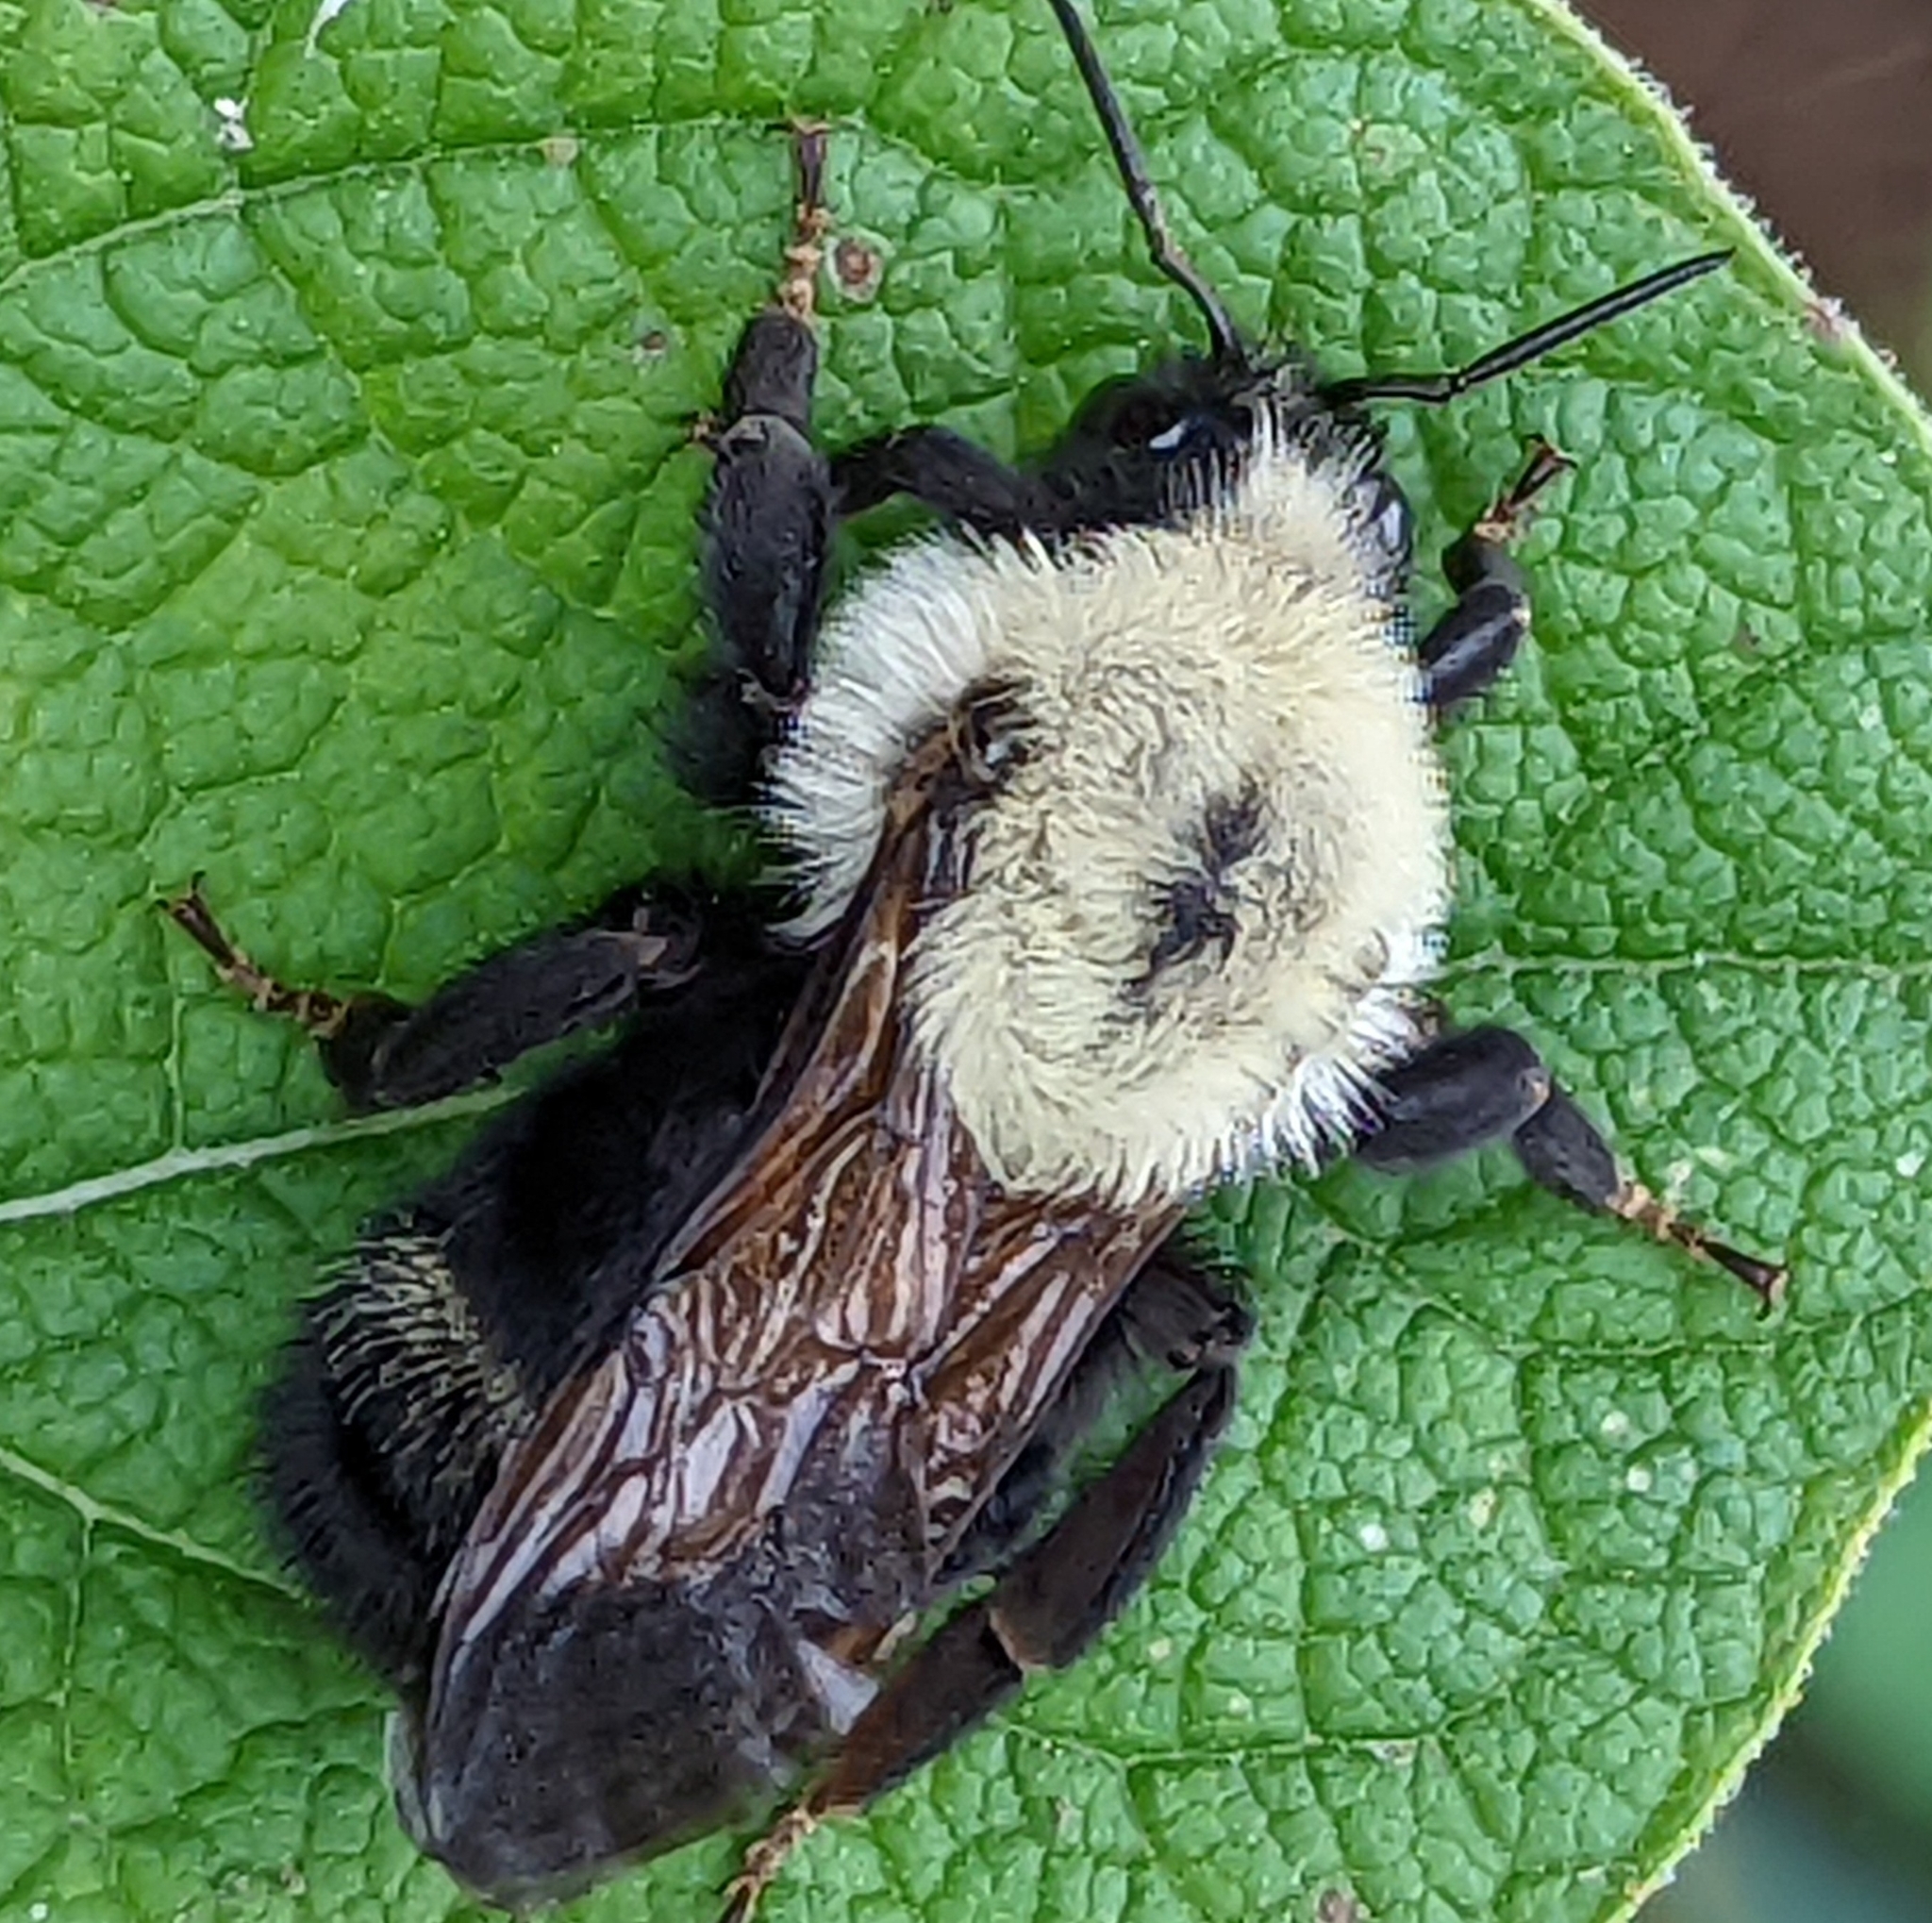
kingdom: Animalia
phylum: Arthropoda
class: Insecta
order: Hymenoptera
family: Apidae
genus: Bombus
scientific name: Bombus citrinus
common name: Lemon cuckoo bumble bee
